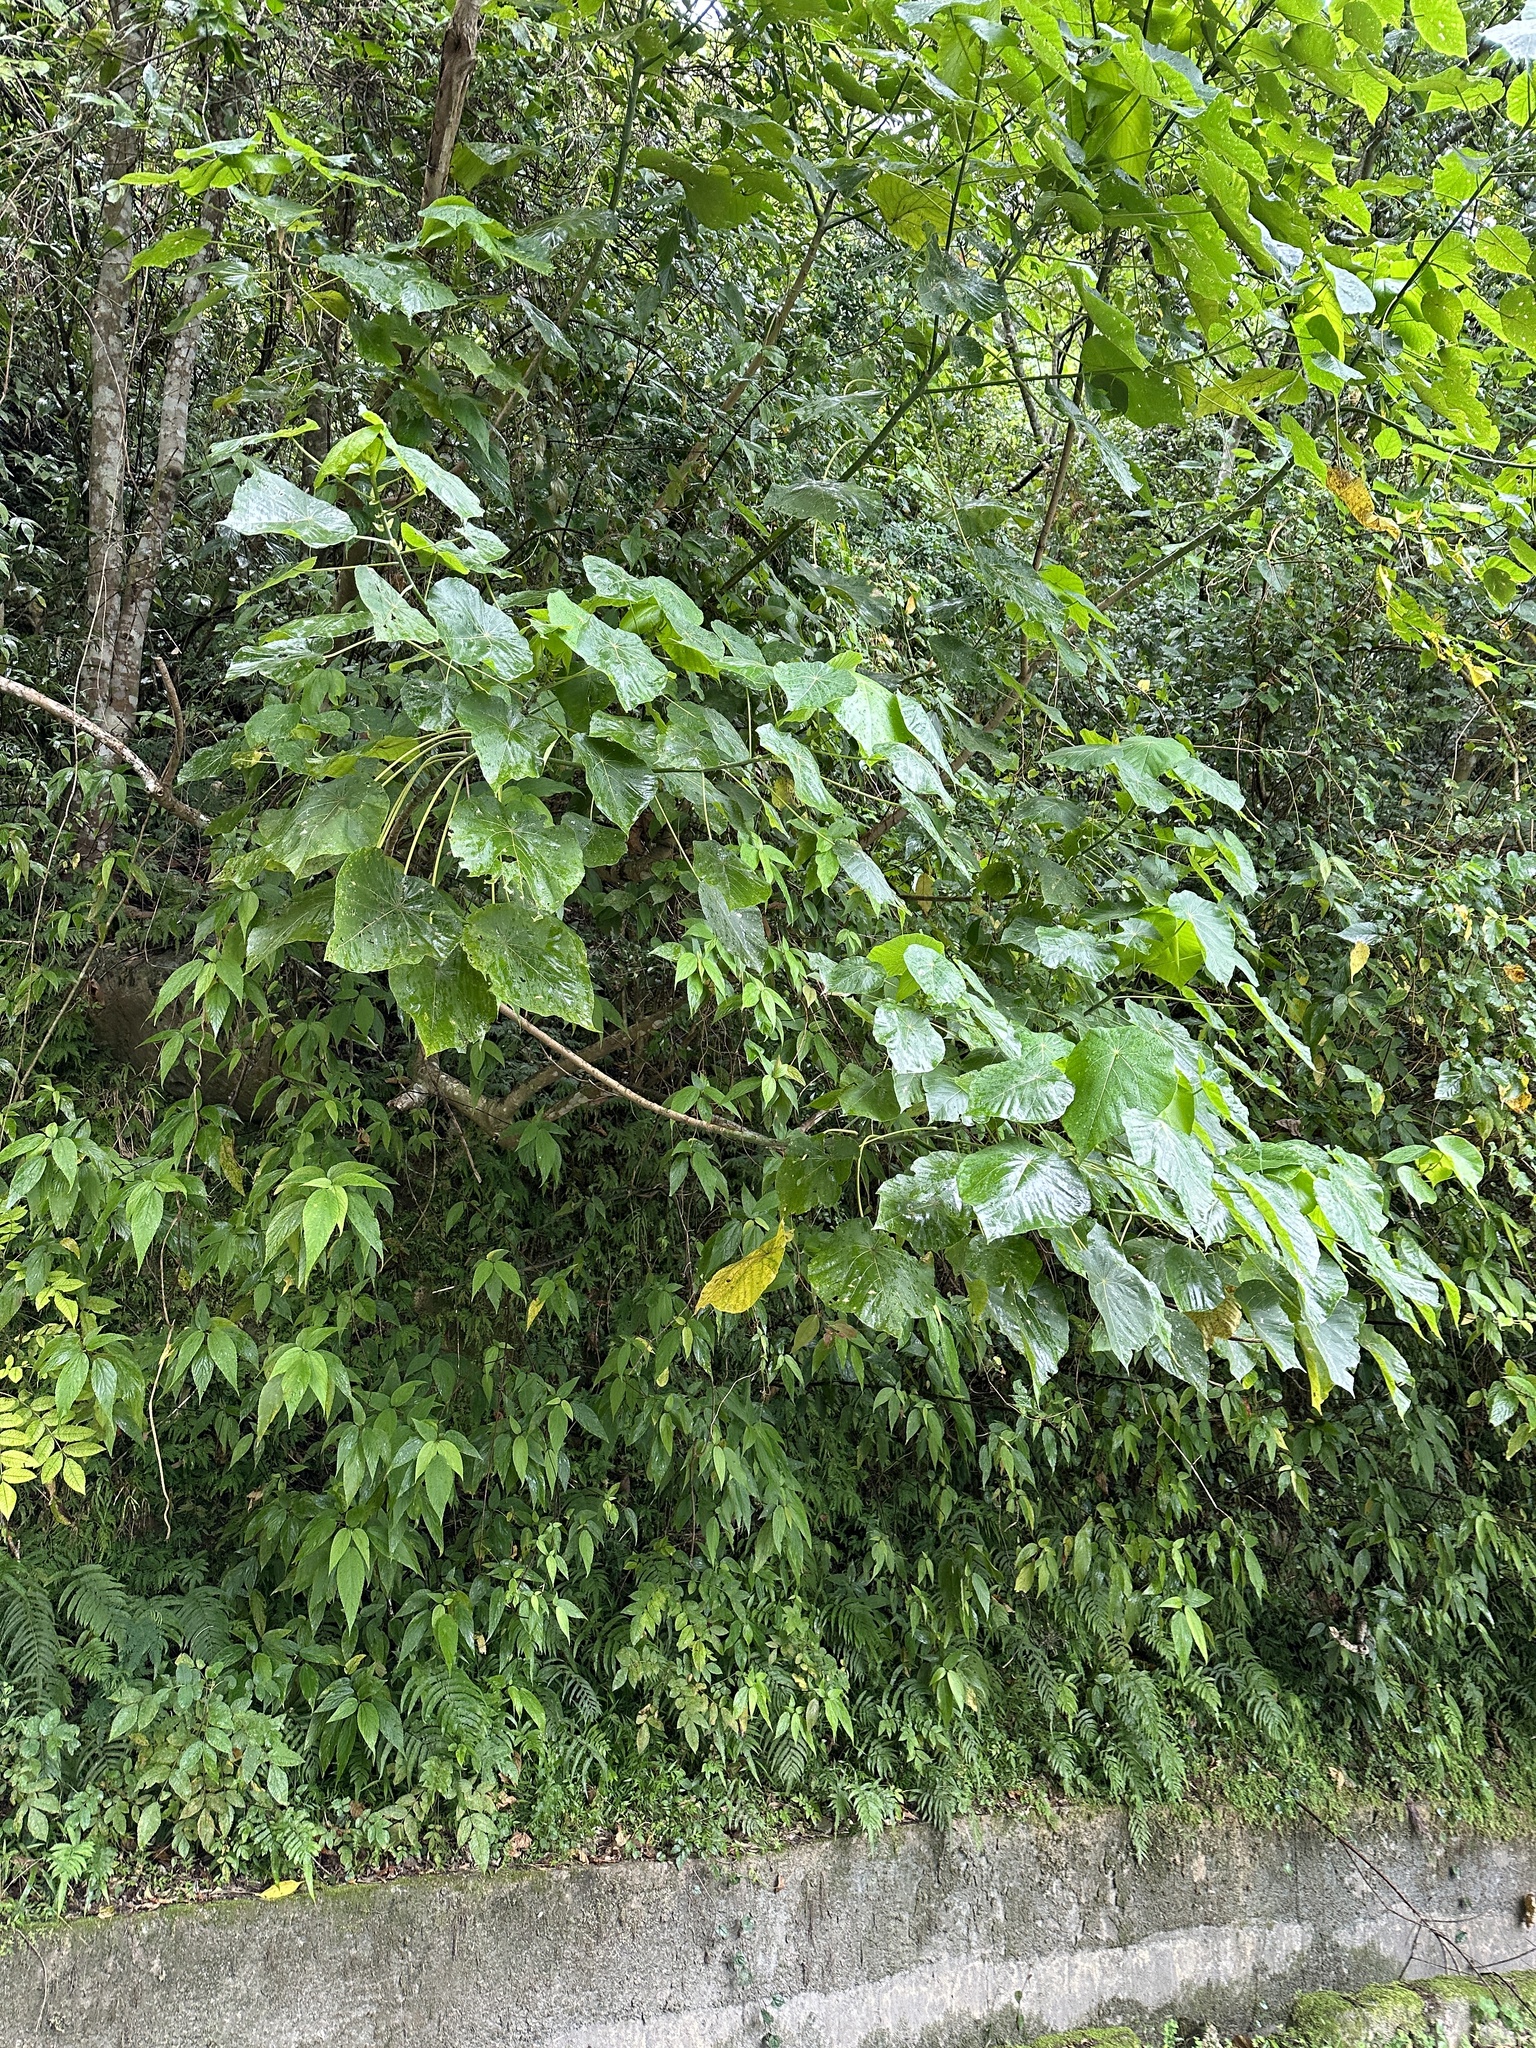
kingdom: Plantae
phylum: Tracheophyta
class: Magnoliopsida
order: Malpighiales
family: Euphorbiaceae
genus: Macaranga
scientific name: Macaranga tanarius
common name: Parasol leaf tree
